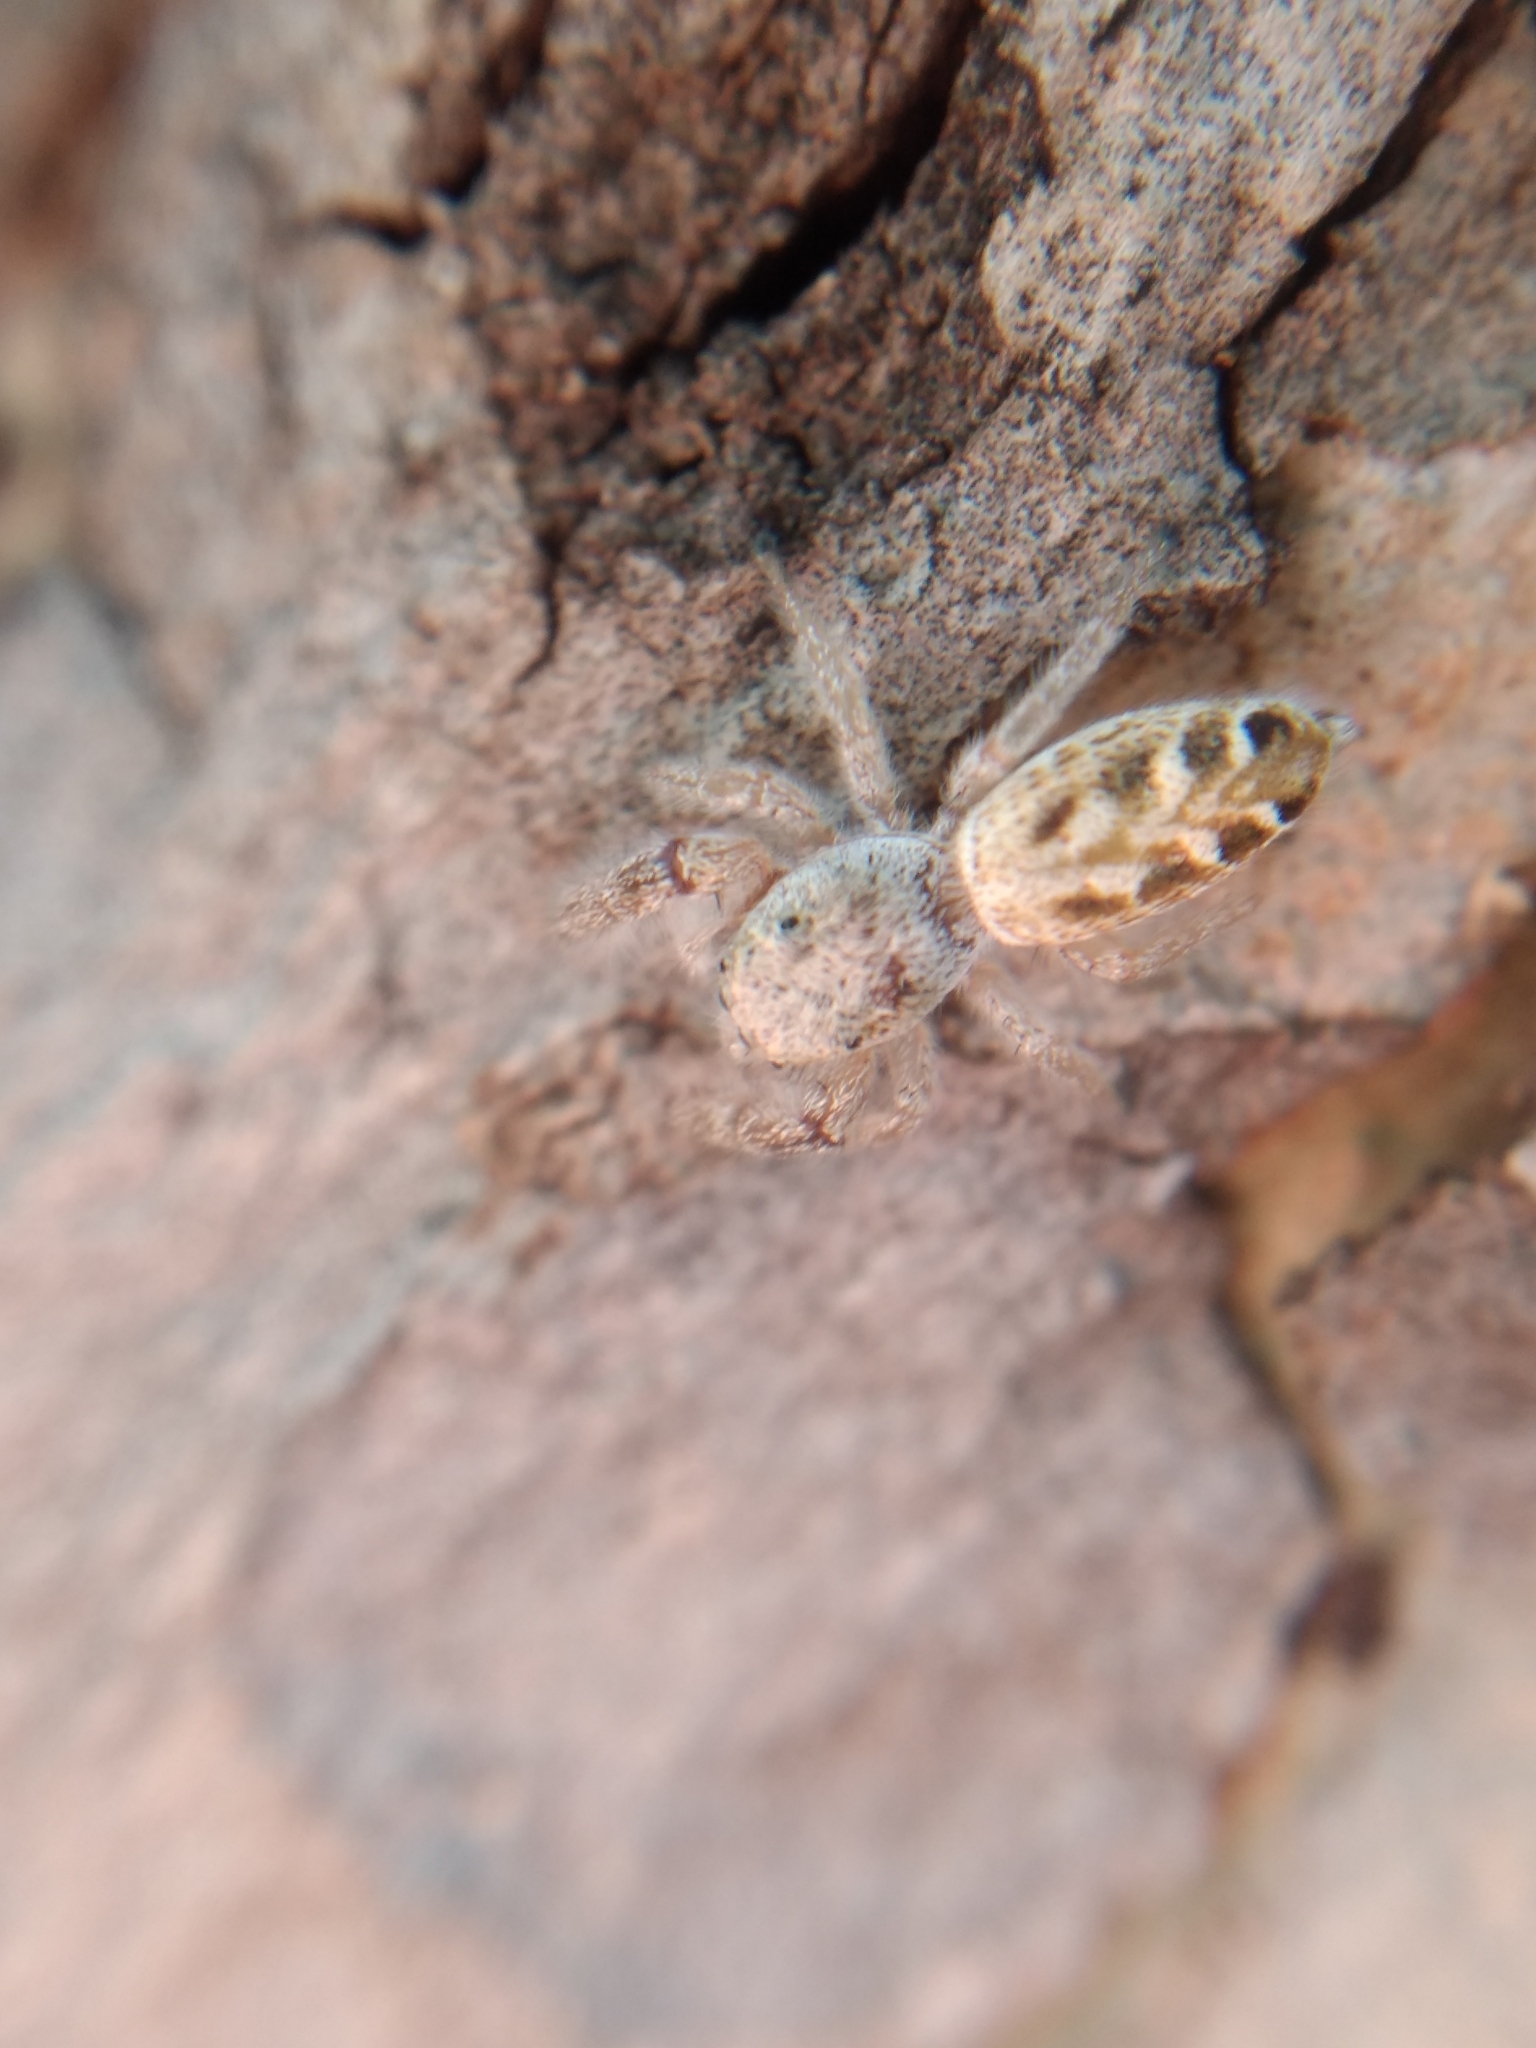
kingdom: Animalia
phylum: Arthropoda
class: Arachnida
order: Araneae
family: Salticidae
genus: Metaphidippus
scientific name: Metaphidippus siticulosus
